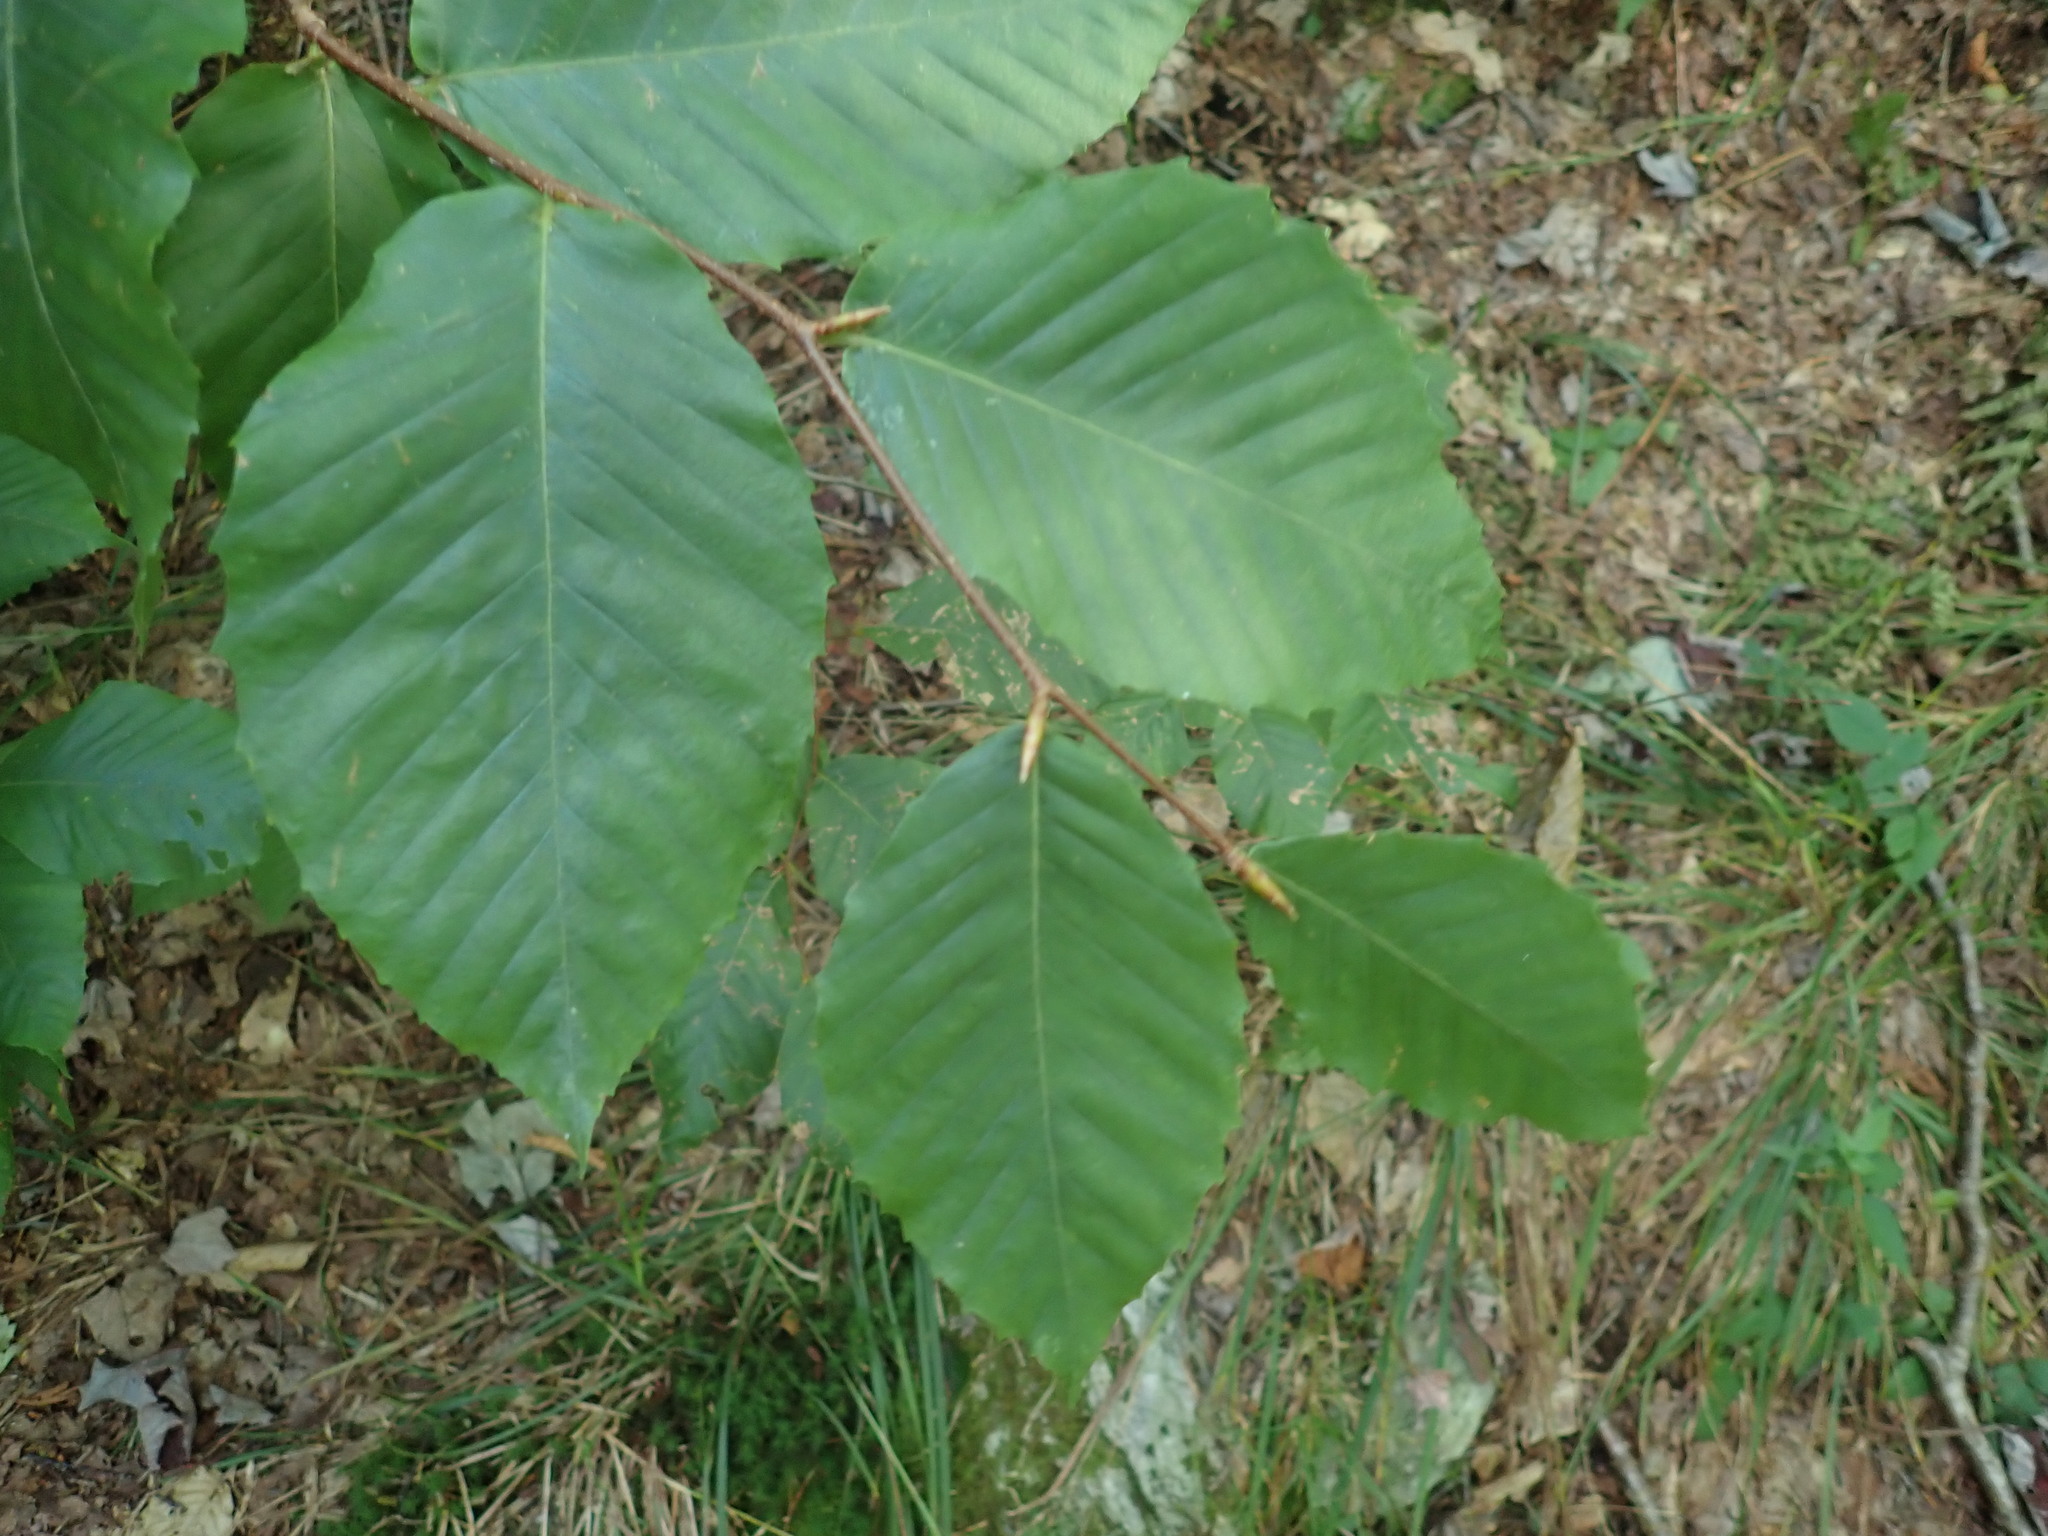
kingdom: Plantae
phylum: Tracheophyta
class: Magnoliopsida
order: Fagales
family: Fagaceae
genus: Fagus
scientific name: Fagus grandifolia
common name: American beech
